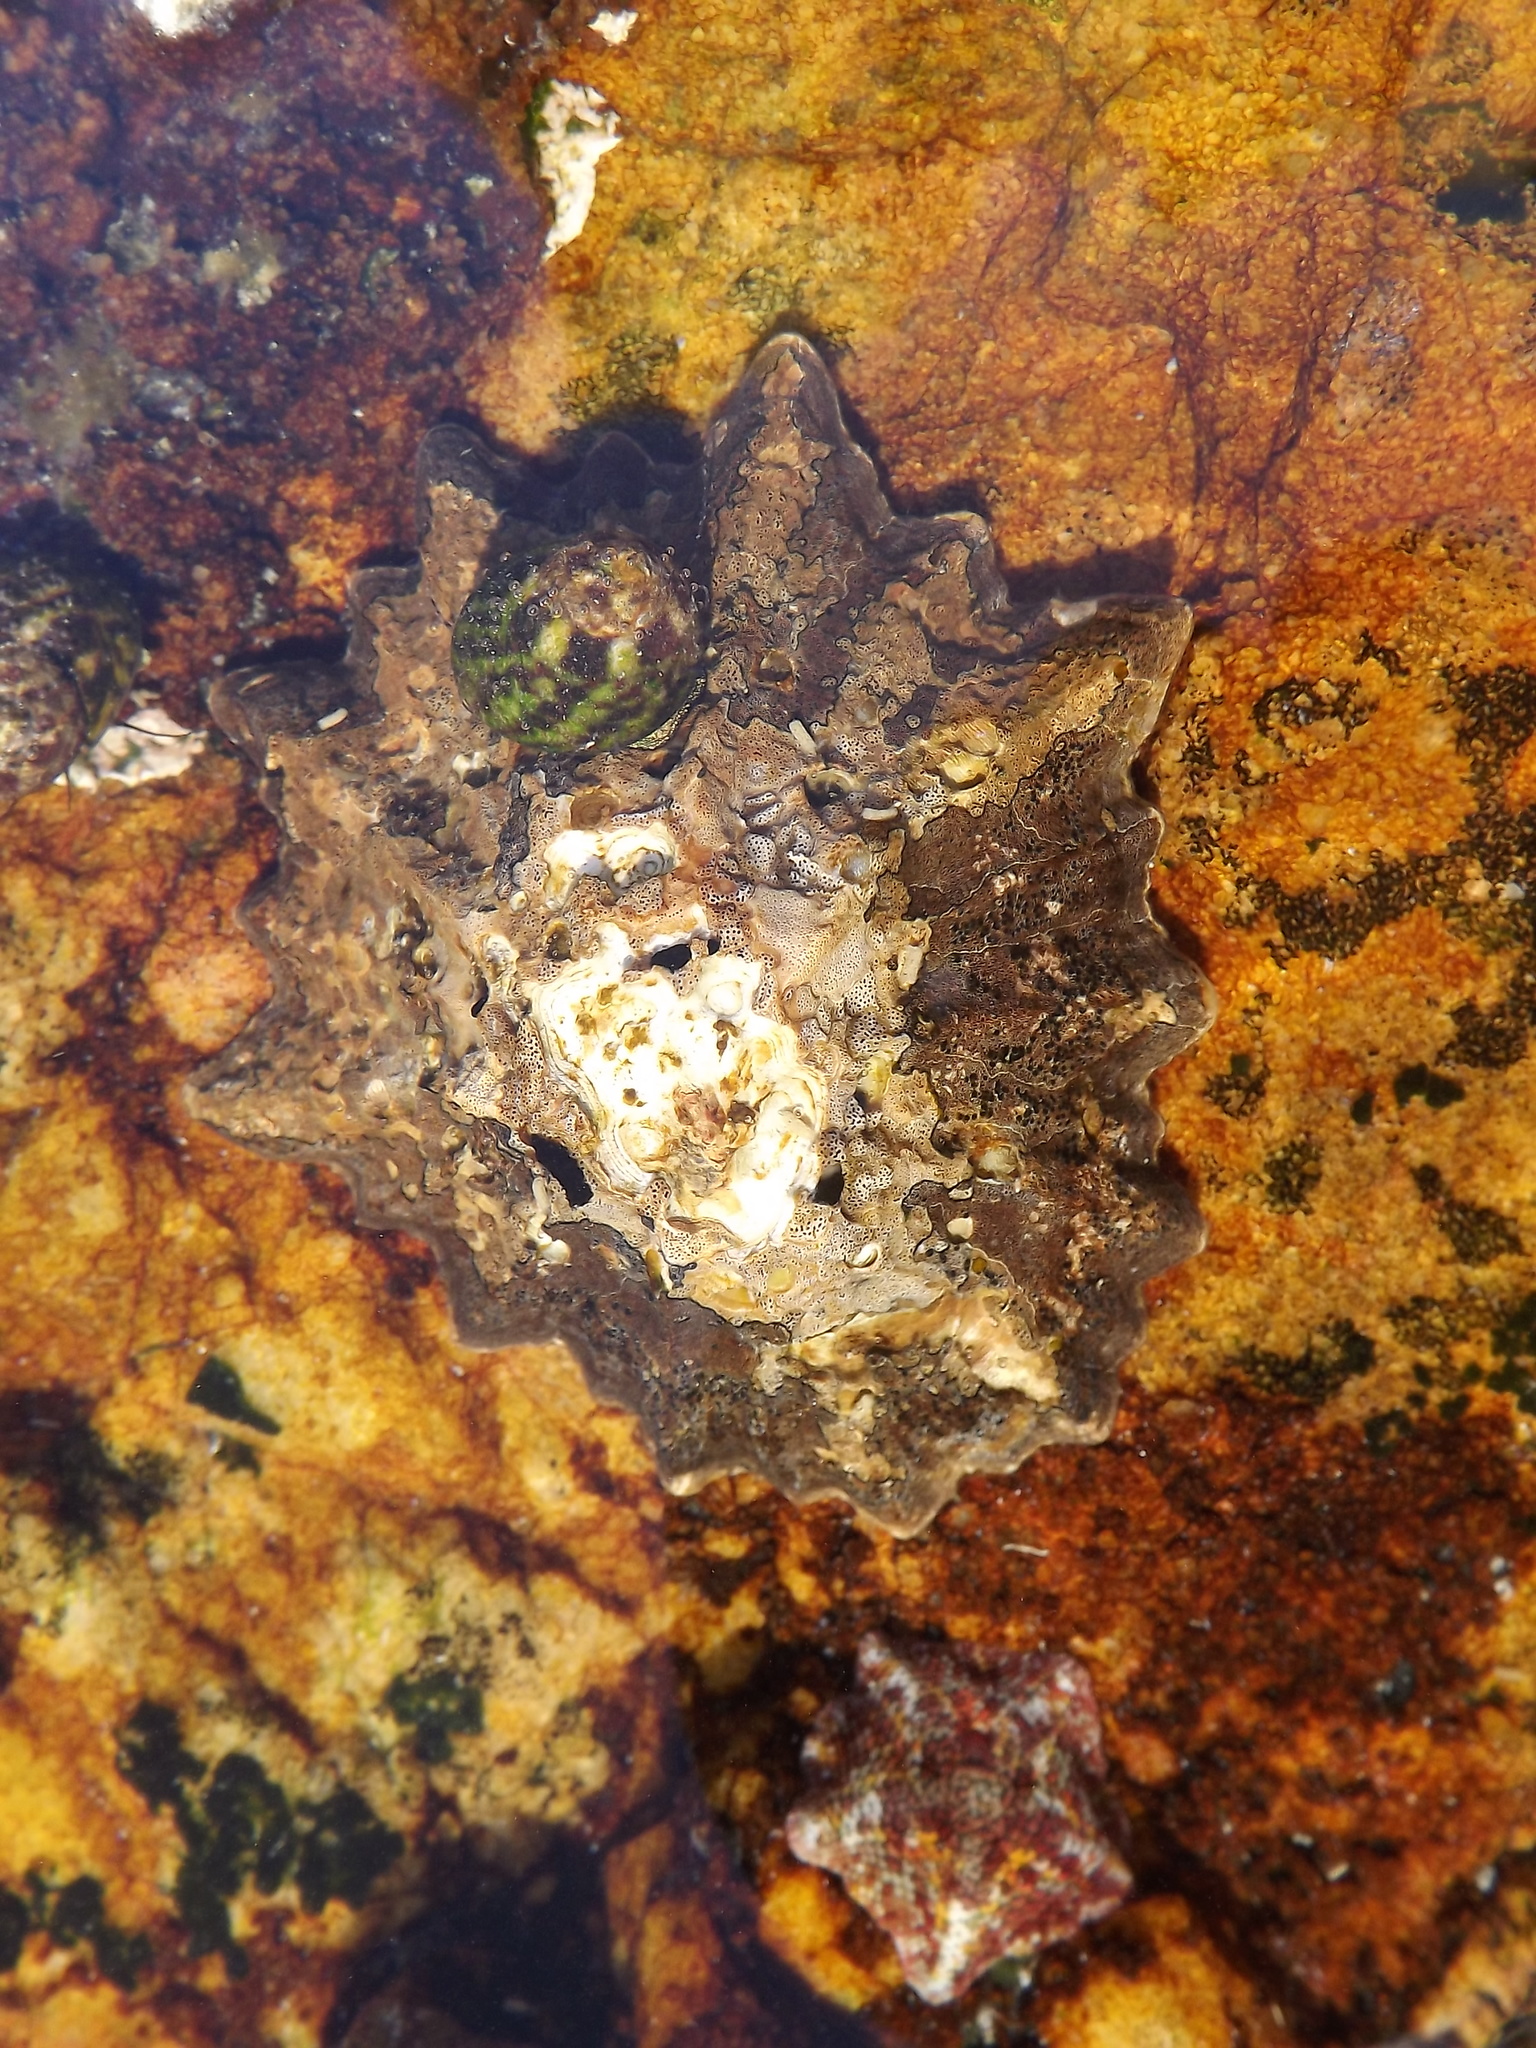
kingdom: Animalia
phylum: Mollusca
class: Gastropoda
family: Patellidae
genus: Cymbula
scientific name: Cymbula oculus
